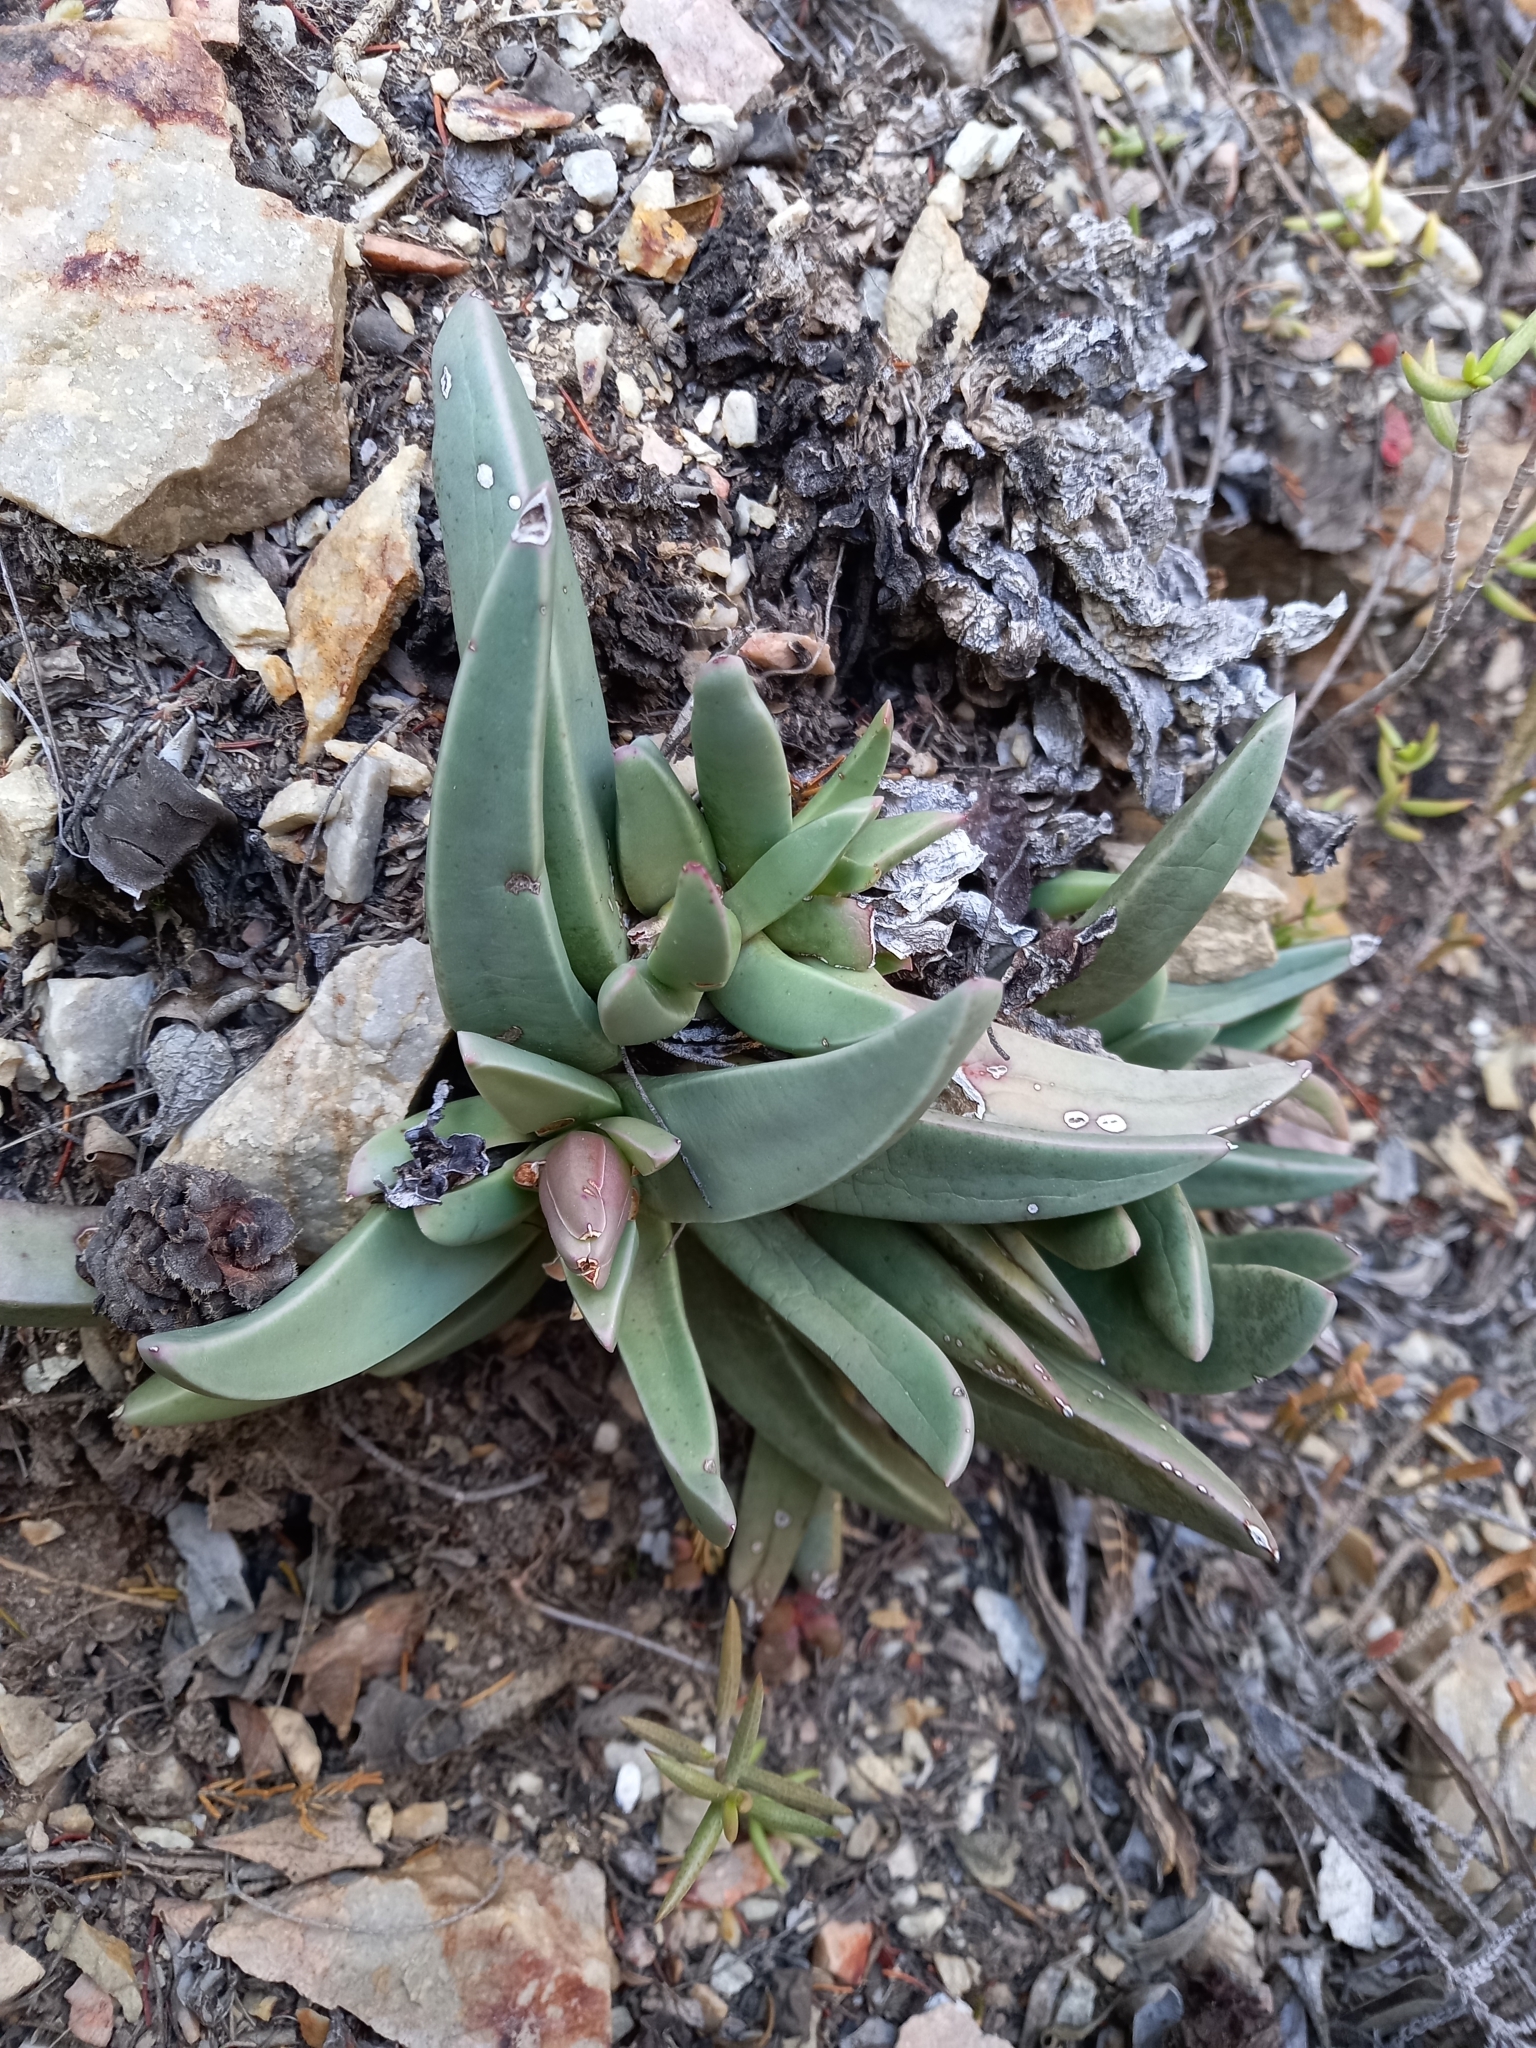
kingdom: Plantae
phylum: Tracheophyta
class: Magnoliopsida
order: Caryophyllales
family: Aizoaceae
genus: Machairophyllum
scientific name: Machairophyllum bijlii
